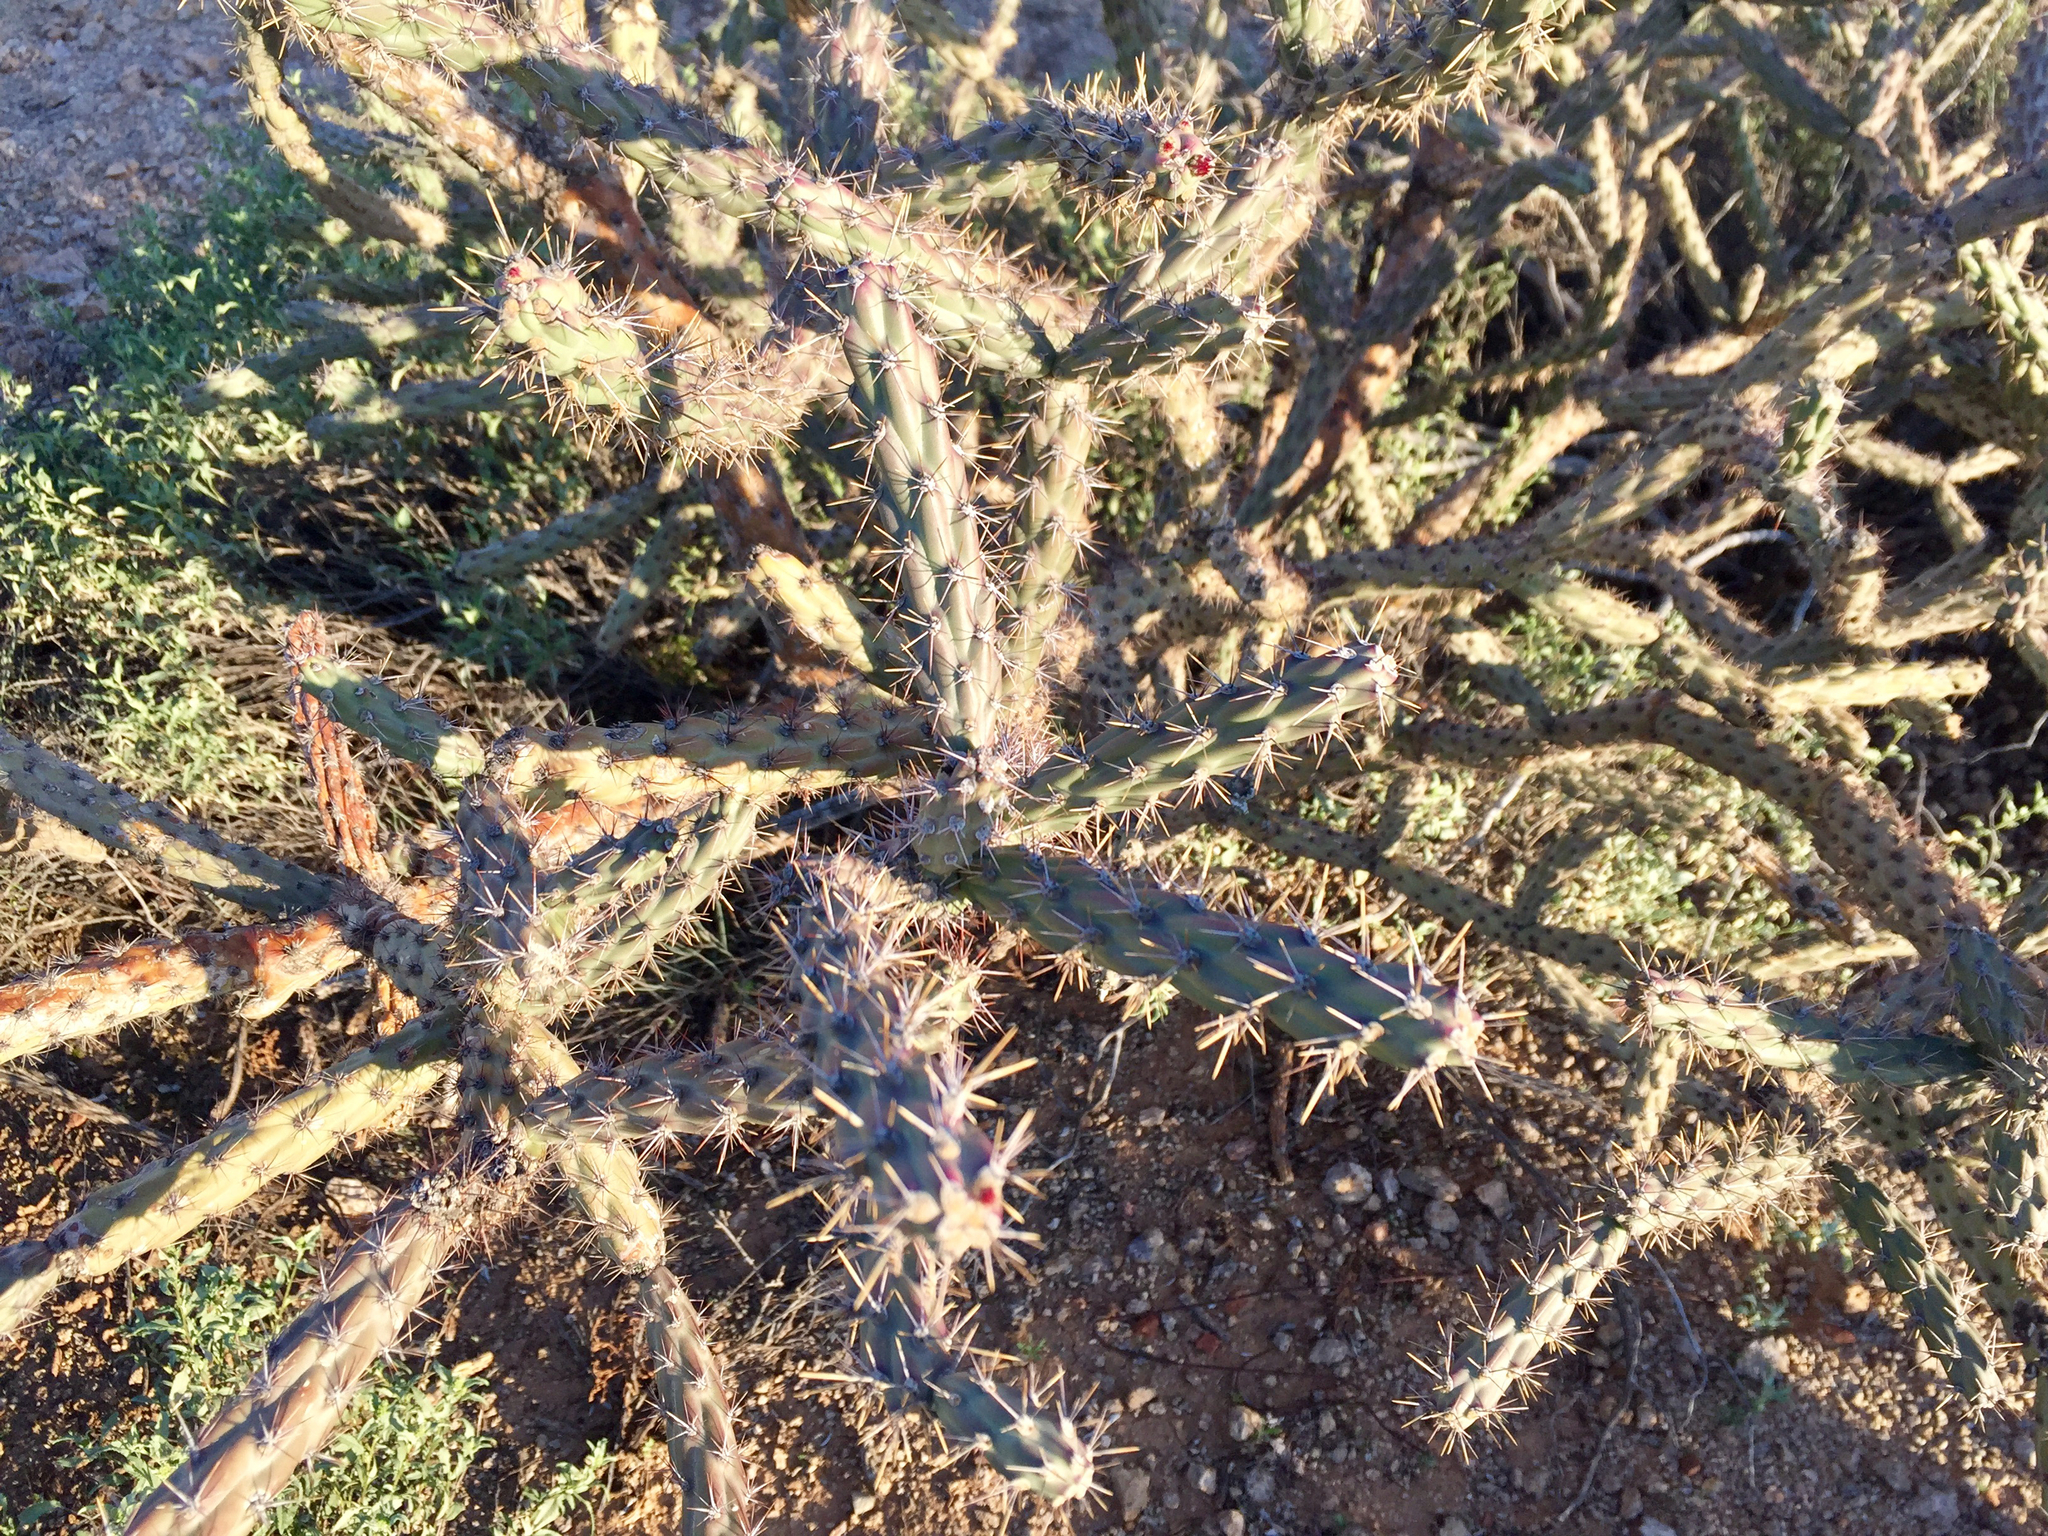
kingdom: Plantae
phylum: Tracheophyta
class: Magnoliopsida
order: Caryophyllales
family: Cactaceae
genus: Cylindropuntia
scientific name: Cylindropuntia acanthocarpa
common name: Buckhorn cholla
